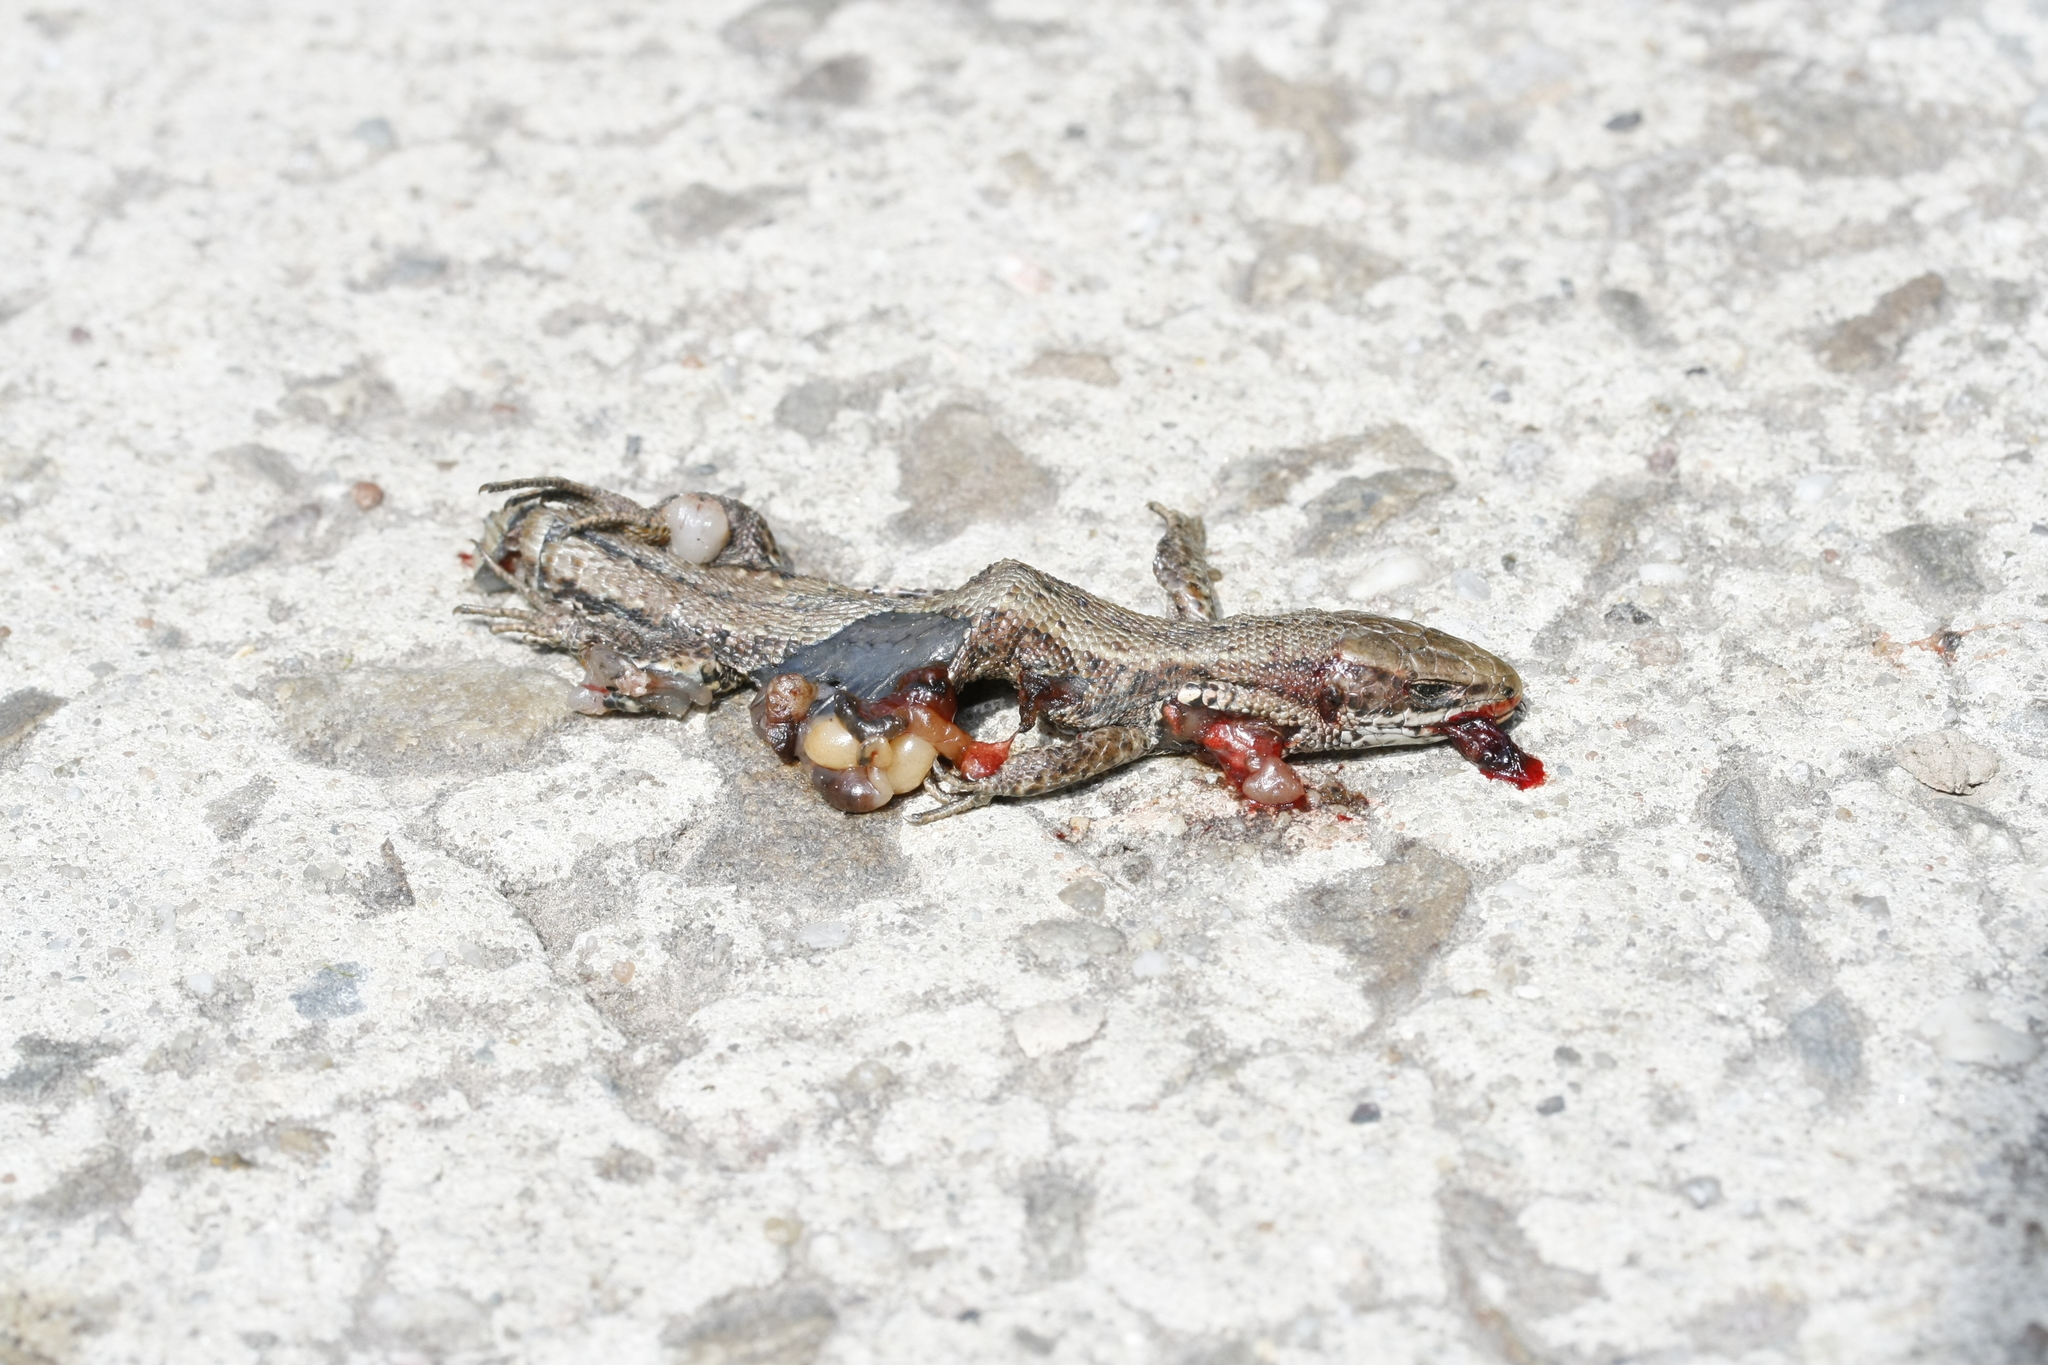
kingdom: Animalia
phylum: Chordata
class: Squamata
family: Lacertidae
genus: Zootoca
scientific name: Zootoca vivipara
